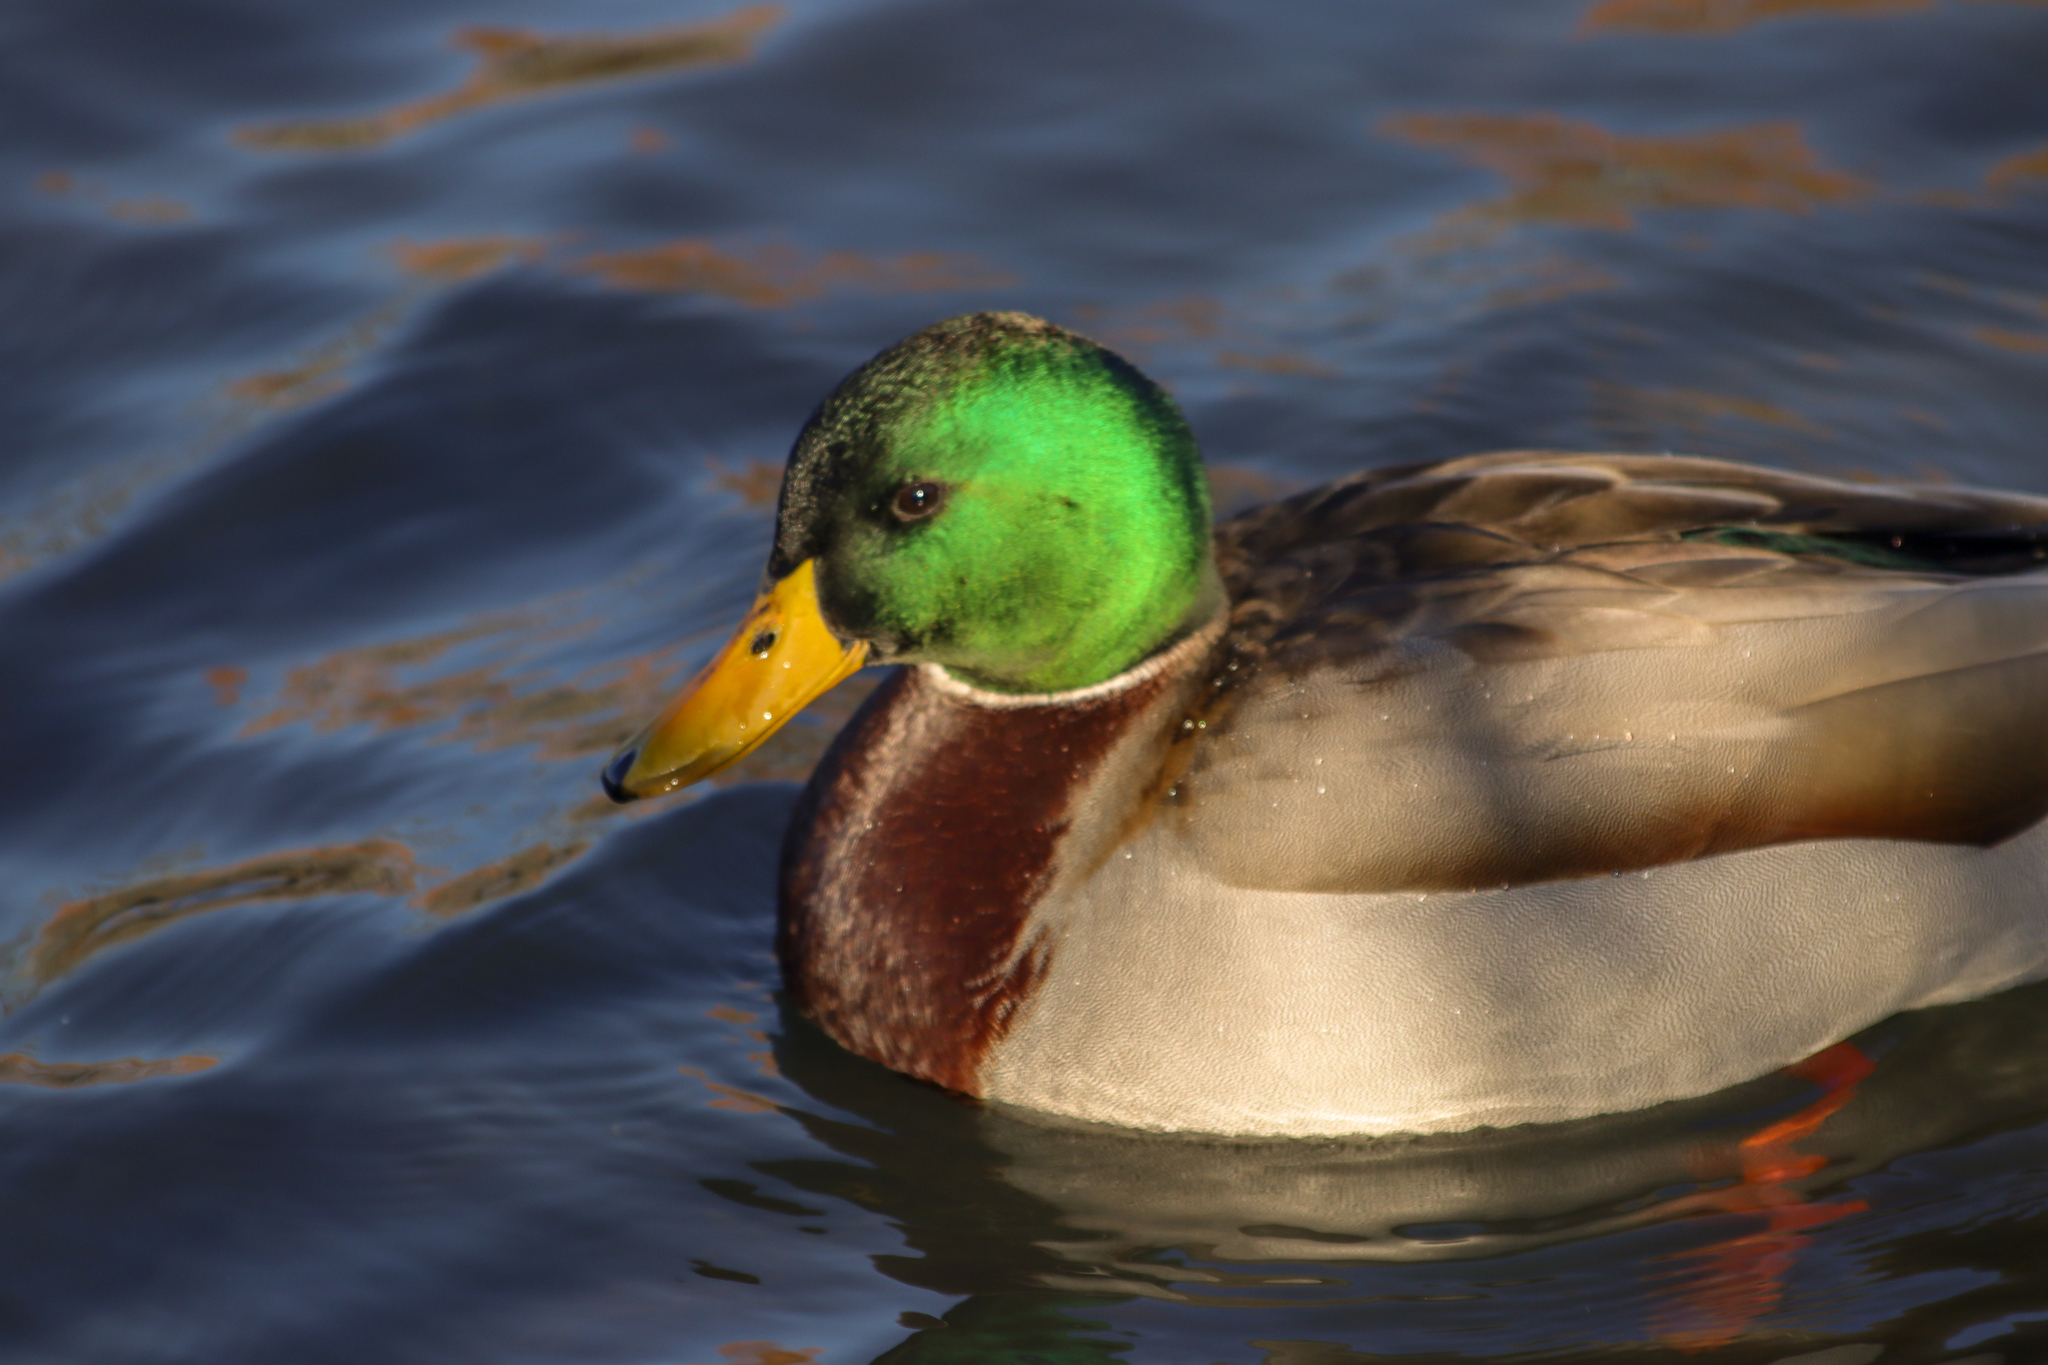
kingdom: Animalia
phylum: Chordata
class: Aves
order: Anseriformes
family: Anatidae
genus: Anas
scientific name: Anas platyrhynchos
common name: Mallard
